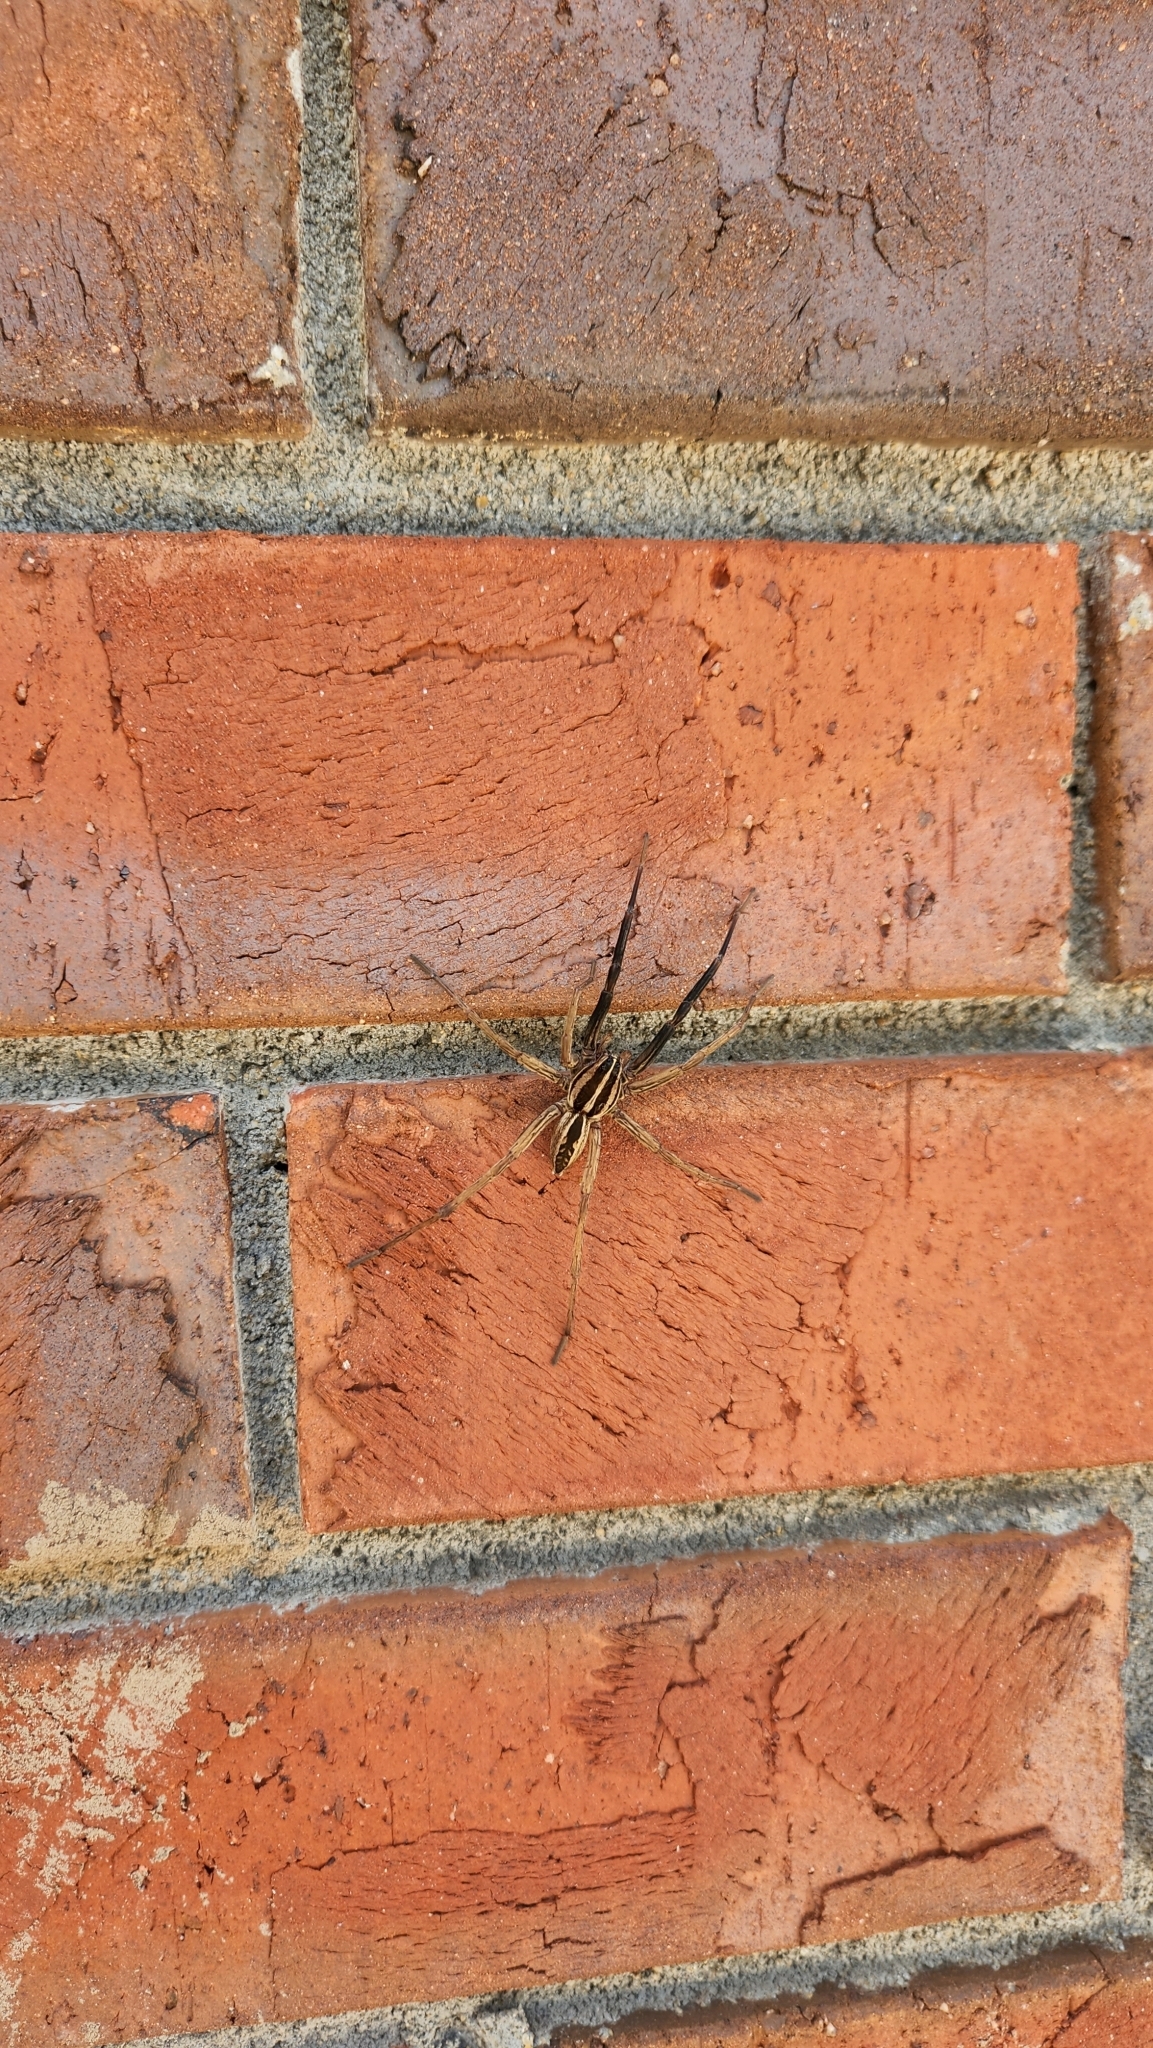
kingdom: Animalia
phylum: Arthropoda
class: Arachnida
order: Araneae
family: Lycosidae
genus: Rabidosa
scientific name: Rabidosa rabida
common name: Rabid wolf spider
